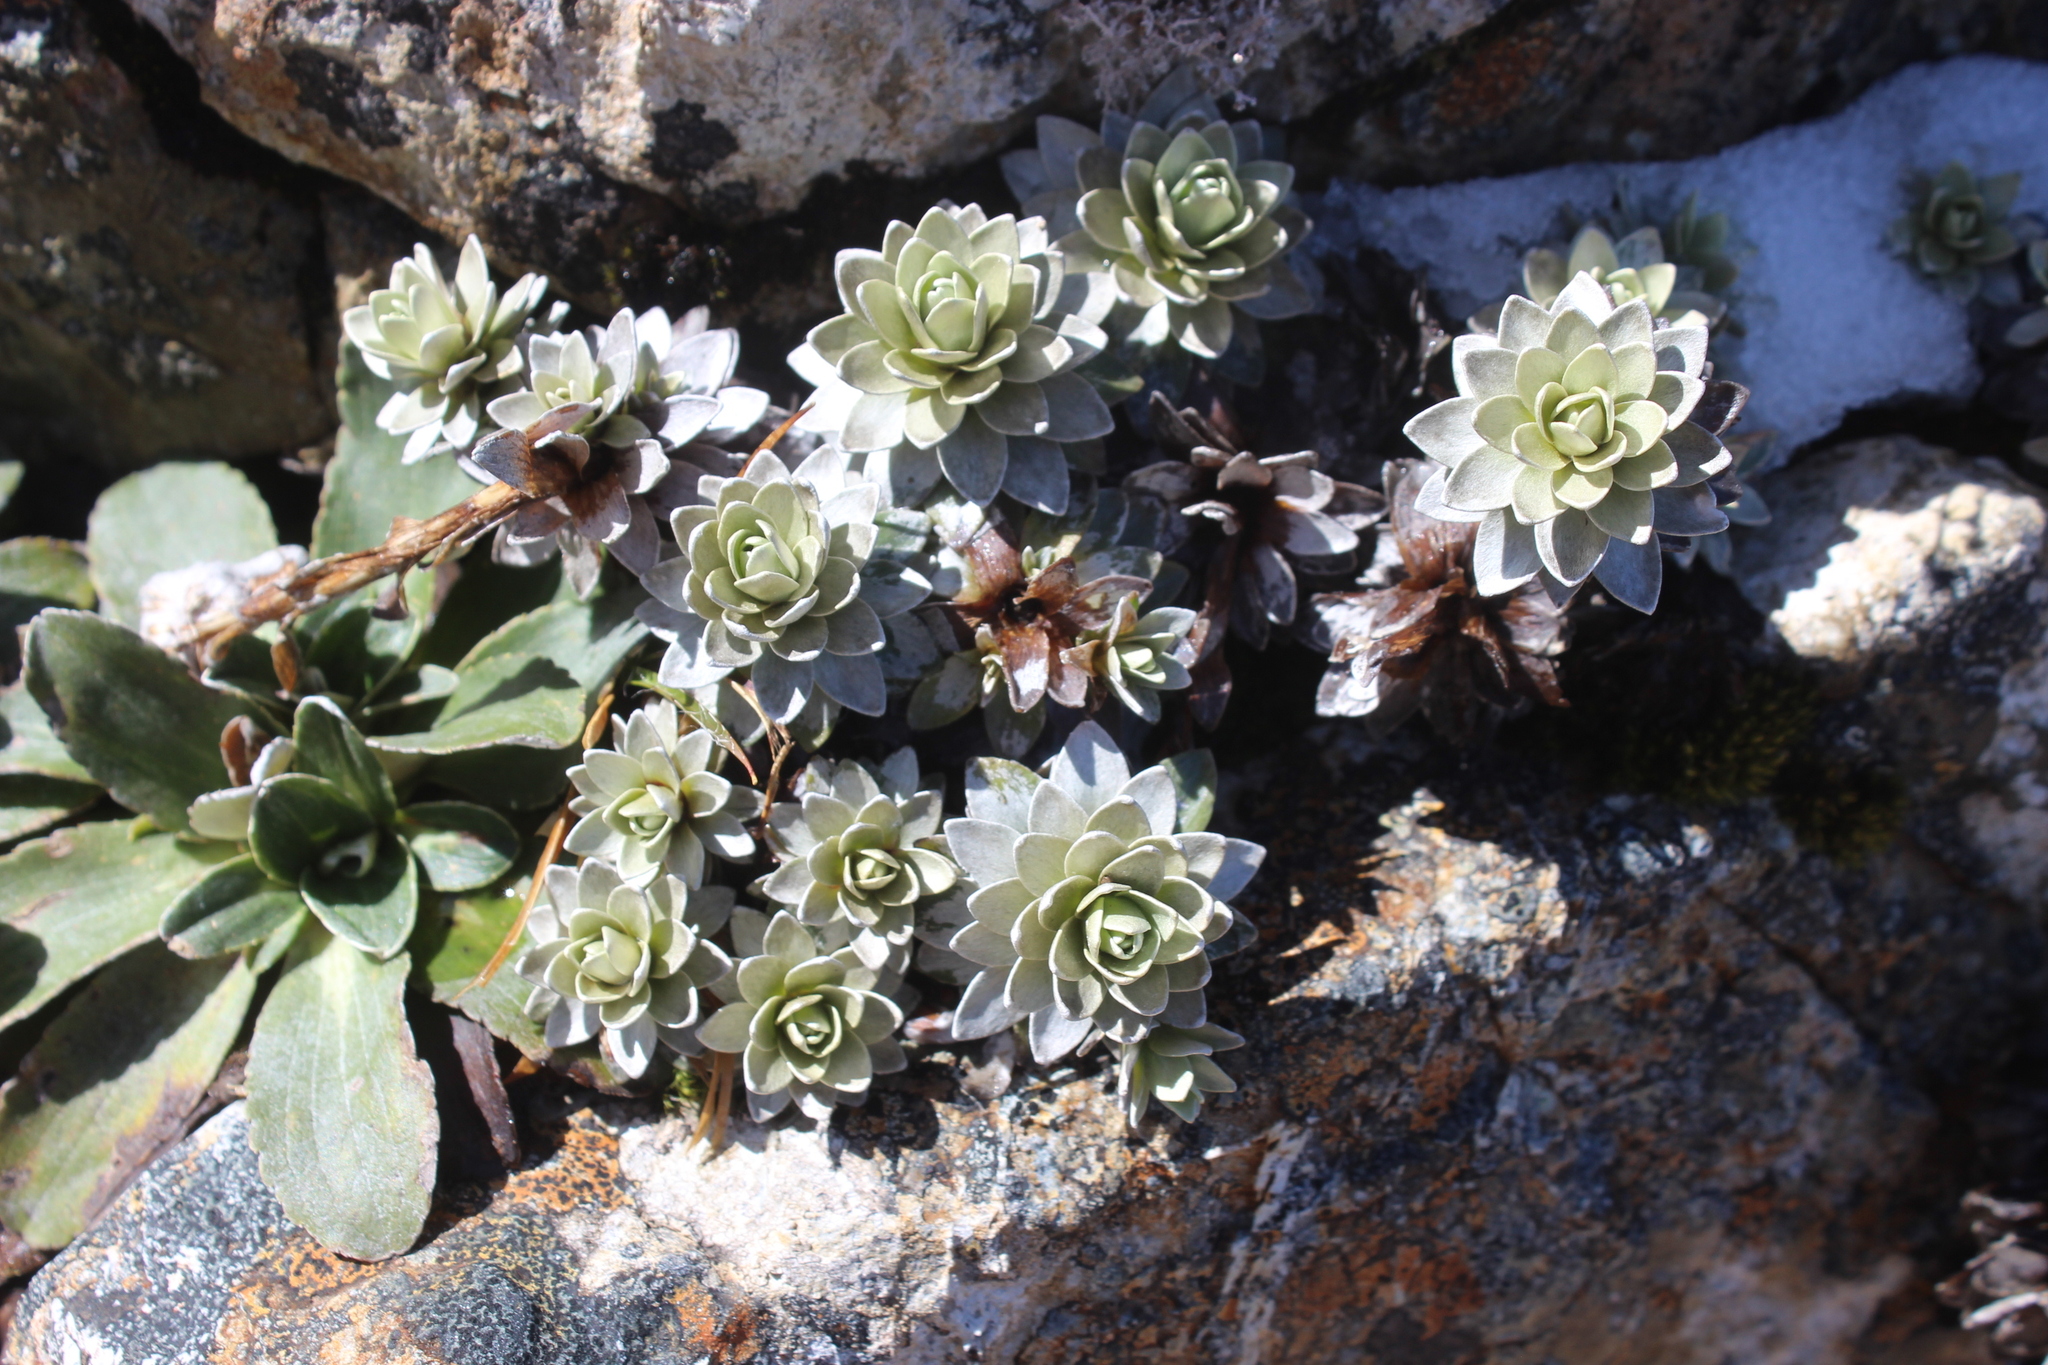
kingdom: Plantae
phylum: Tracheophyta
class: Magnoliopsida
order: Asterales
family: Asteraceae
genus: Leucogenes
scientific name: Leucogenes leontopodium
